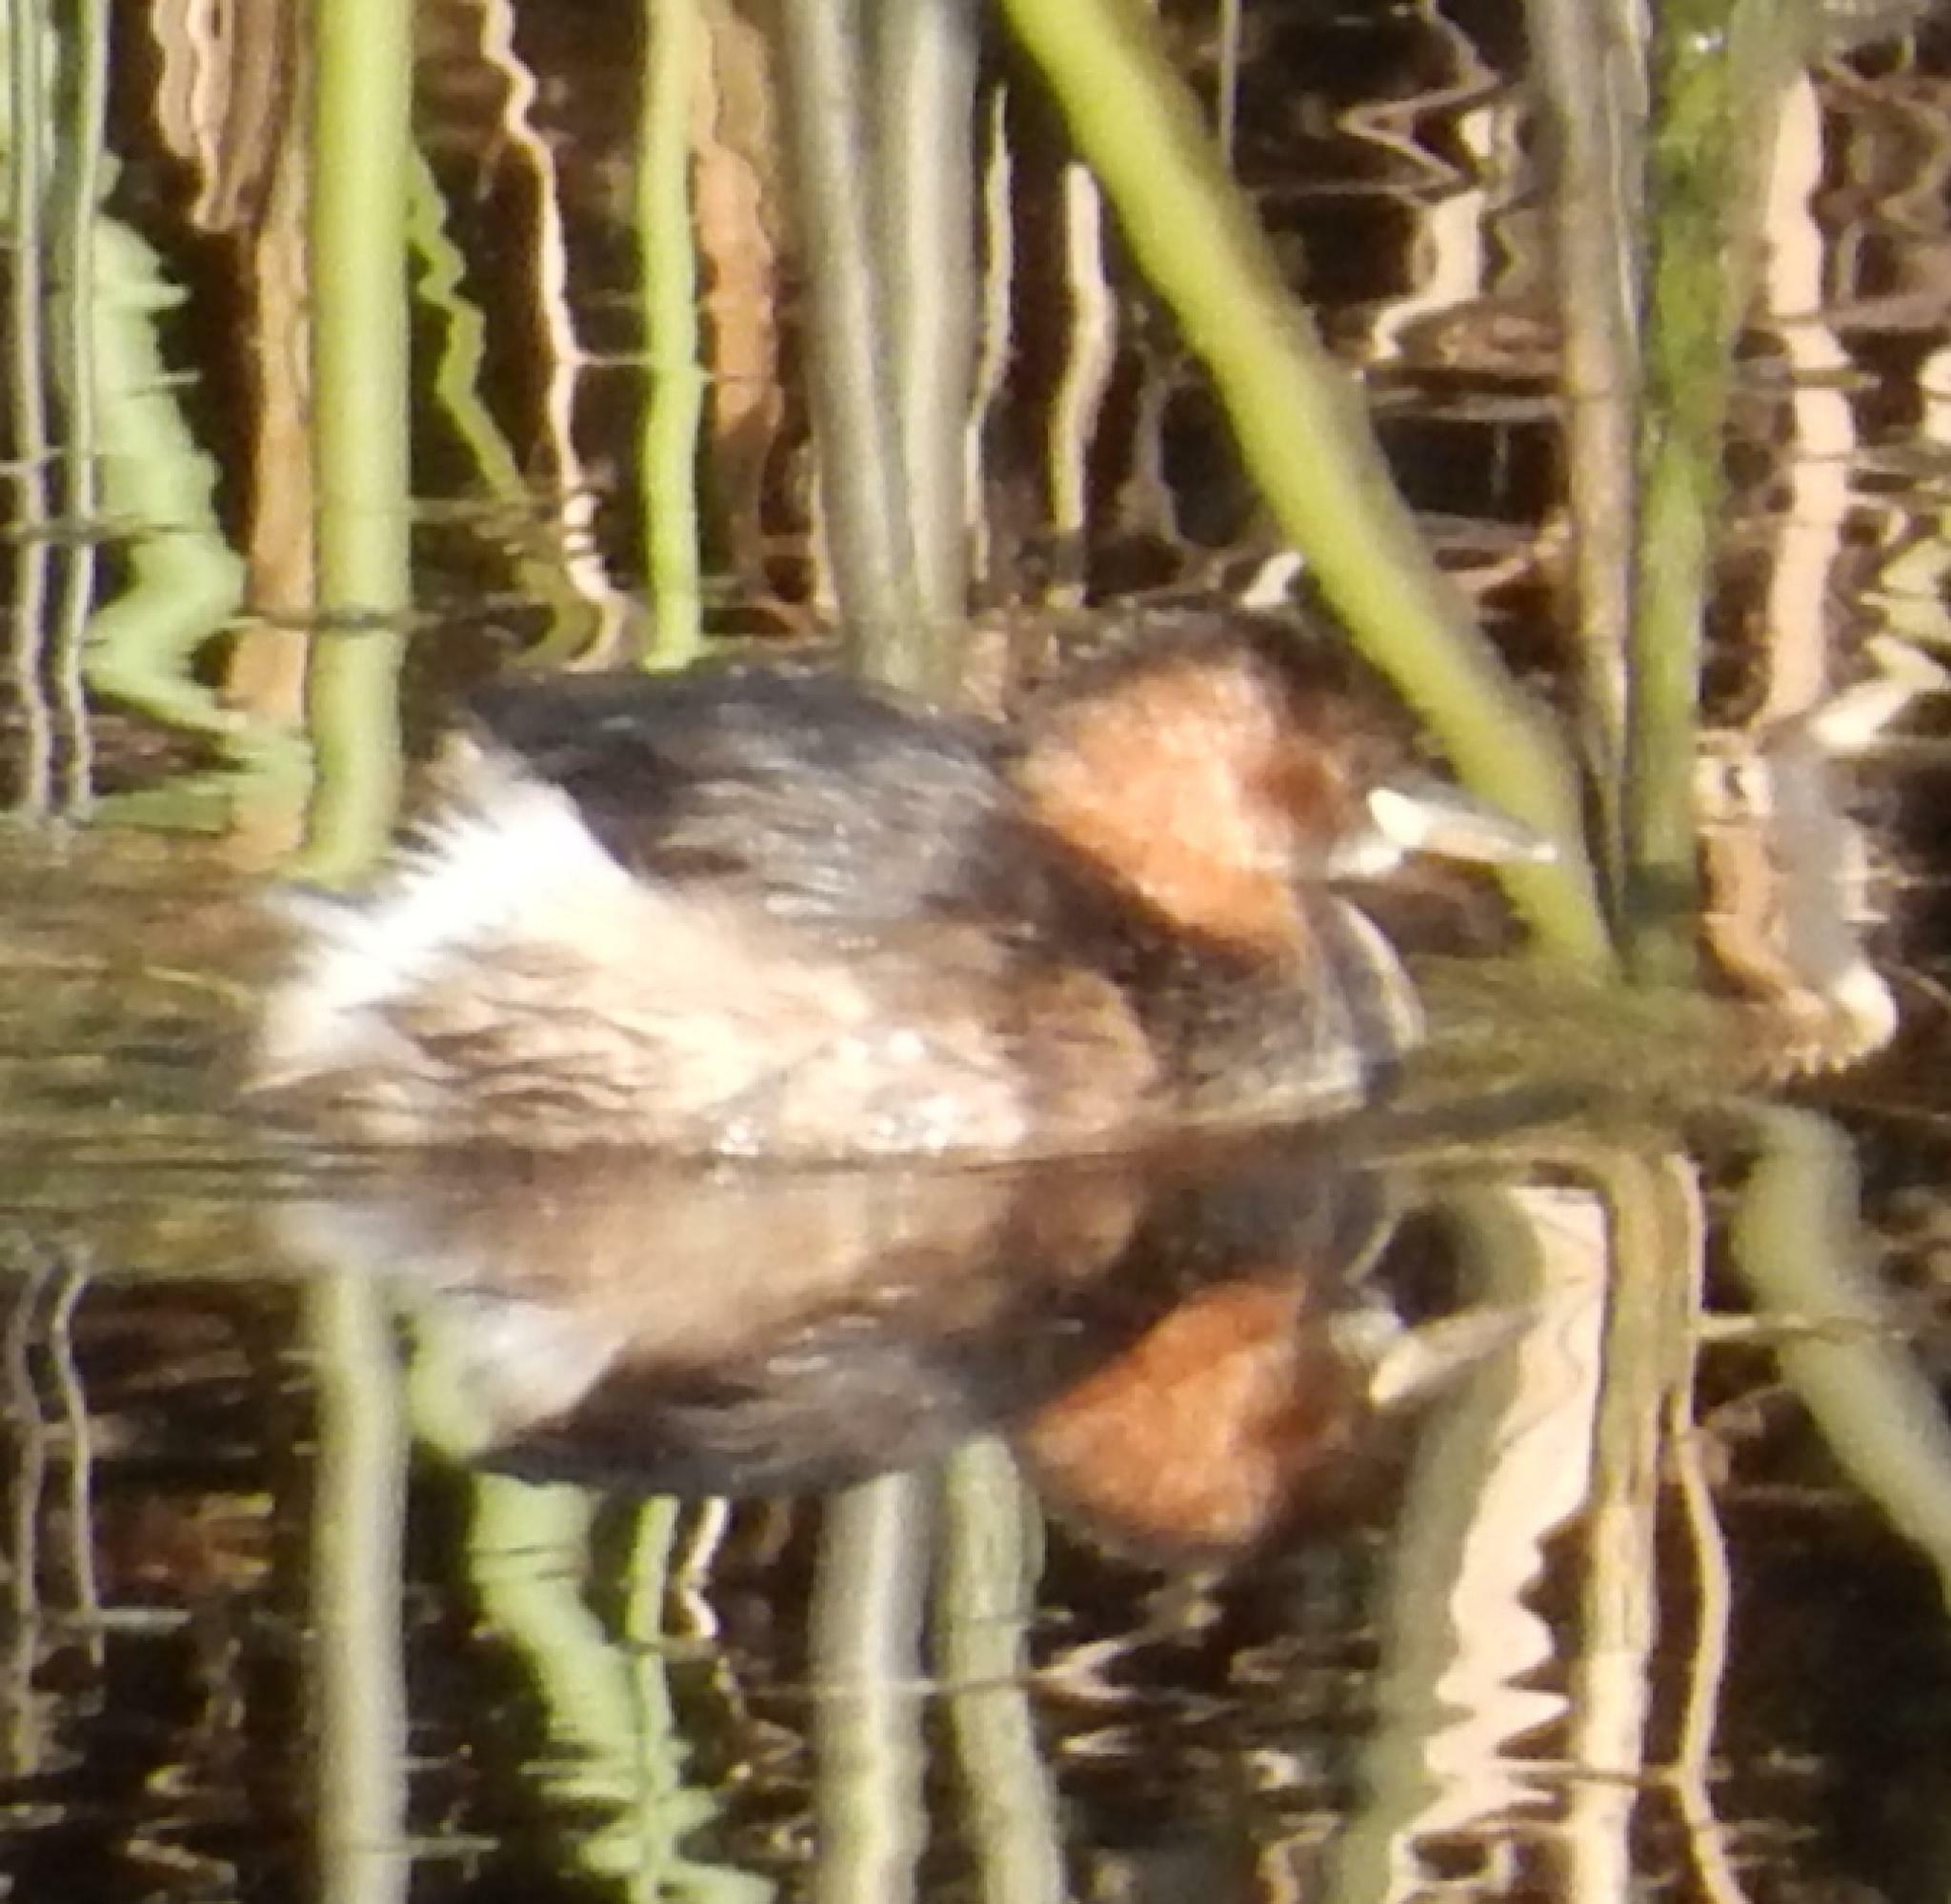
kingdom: Animalia
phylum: Chordata
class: Aves
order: Podicipediformes
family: Podicipedidae
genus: Tachybaptus
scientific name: Tachybaptus ruficollis
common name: Little grebe
